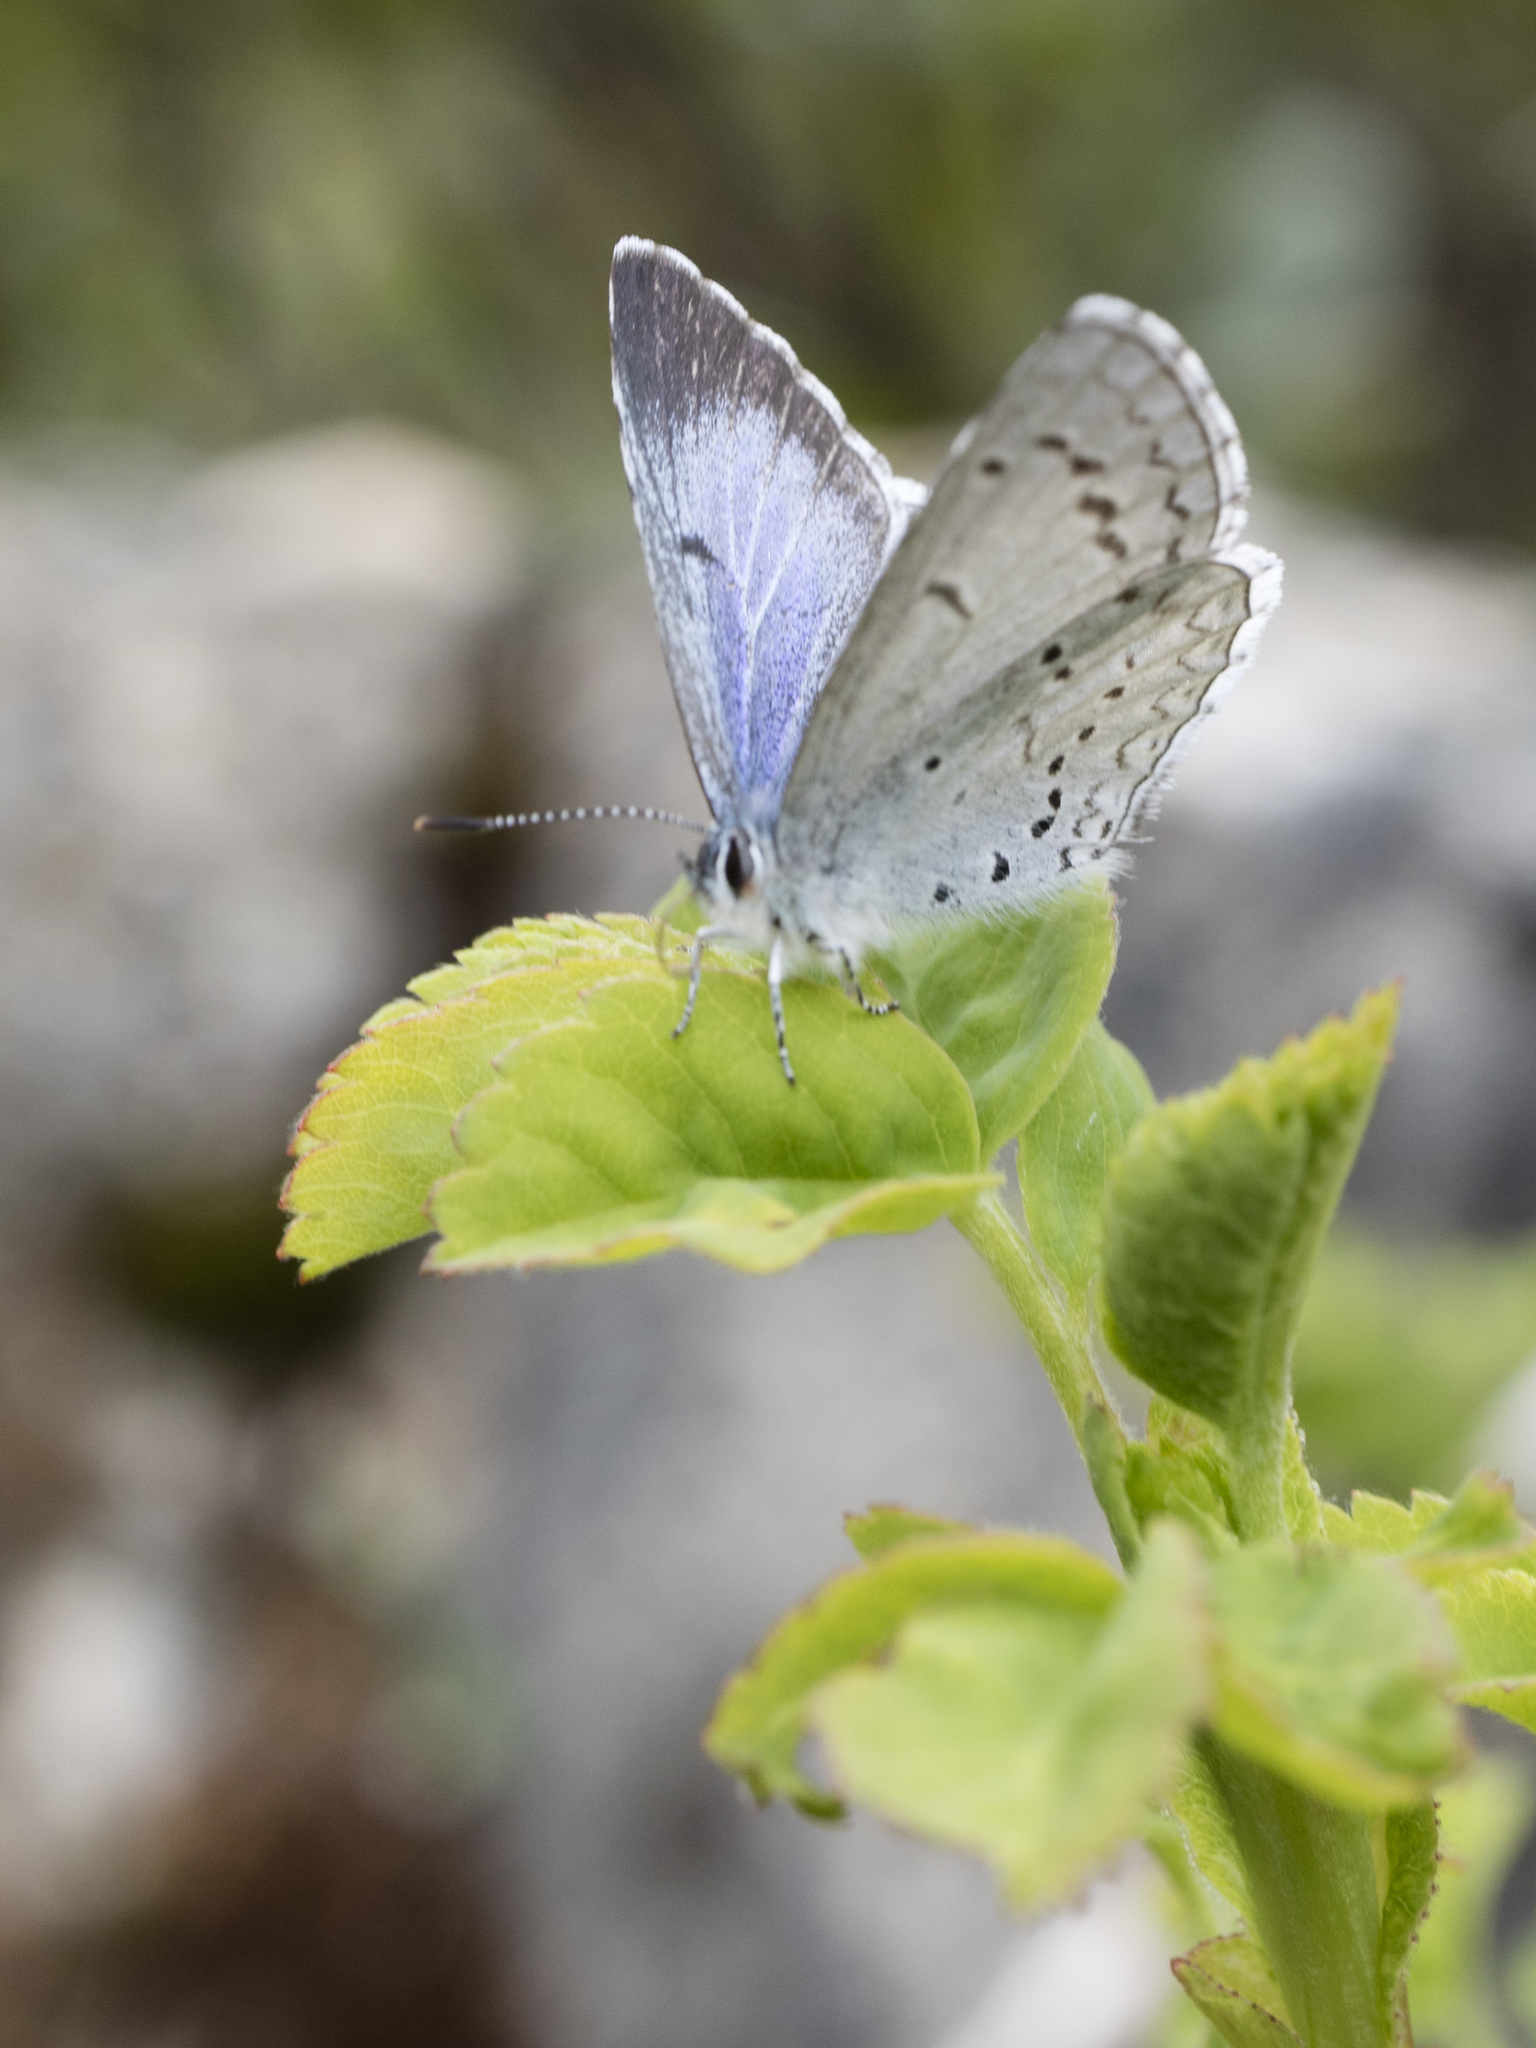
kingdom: Animalia
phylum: Arthropoda
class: Insecta
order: Lepidoptera
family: Lycaenidae
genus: Celastrina
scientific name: Celastrina ladon
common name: Spring azure
